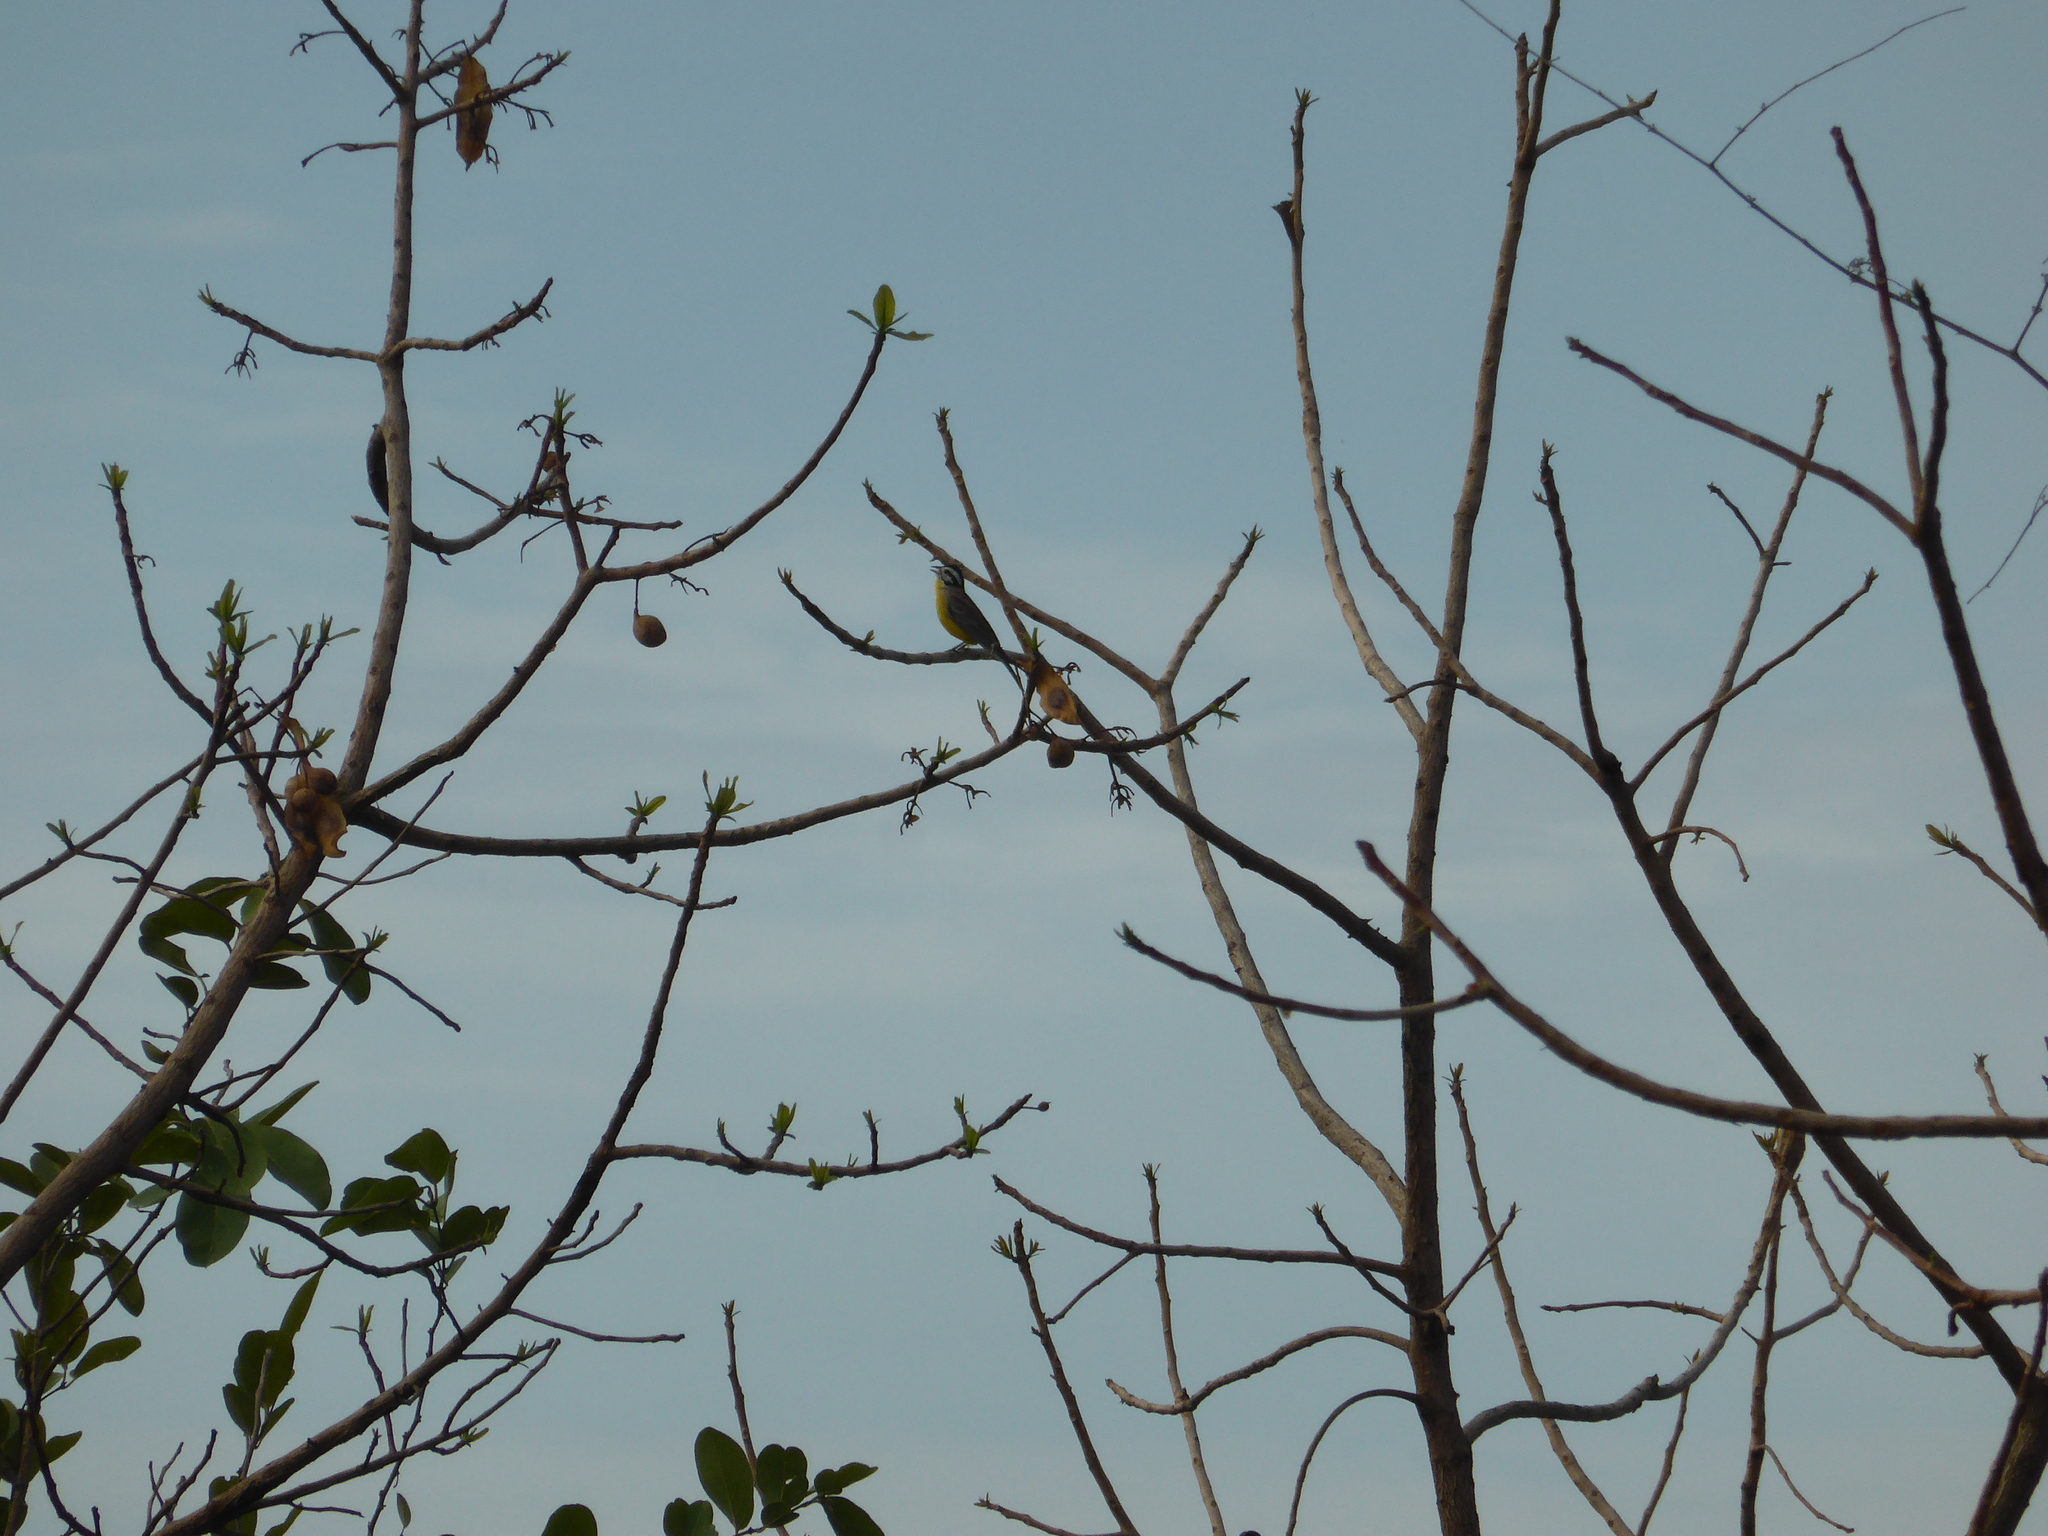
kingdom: Animalia
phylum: Chordata
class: Aves
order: Passeriformes
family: Emberizidae
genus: Emberiza
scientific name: Emberiza affinis
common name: Brown-rumped bunting
